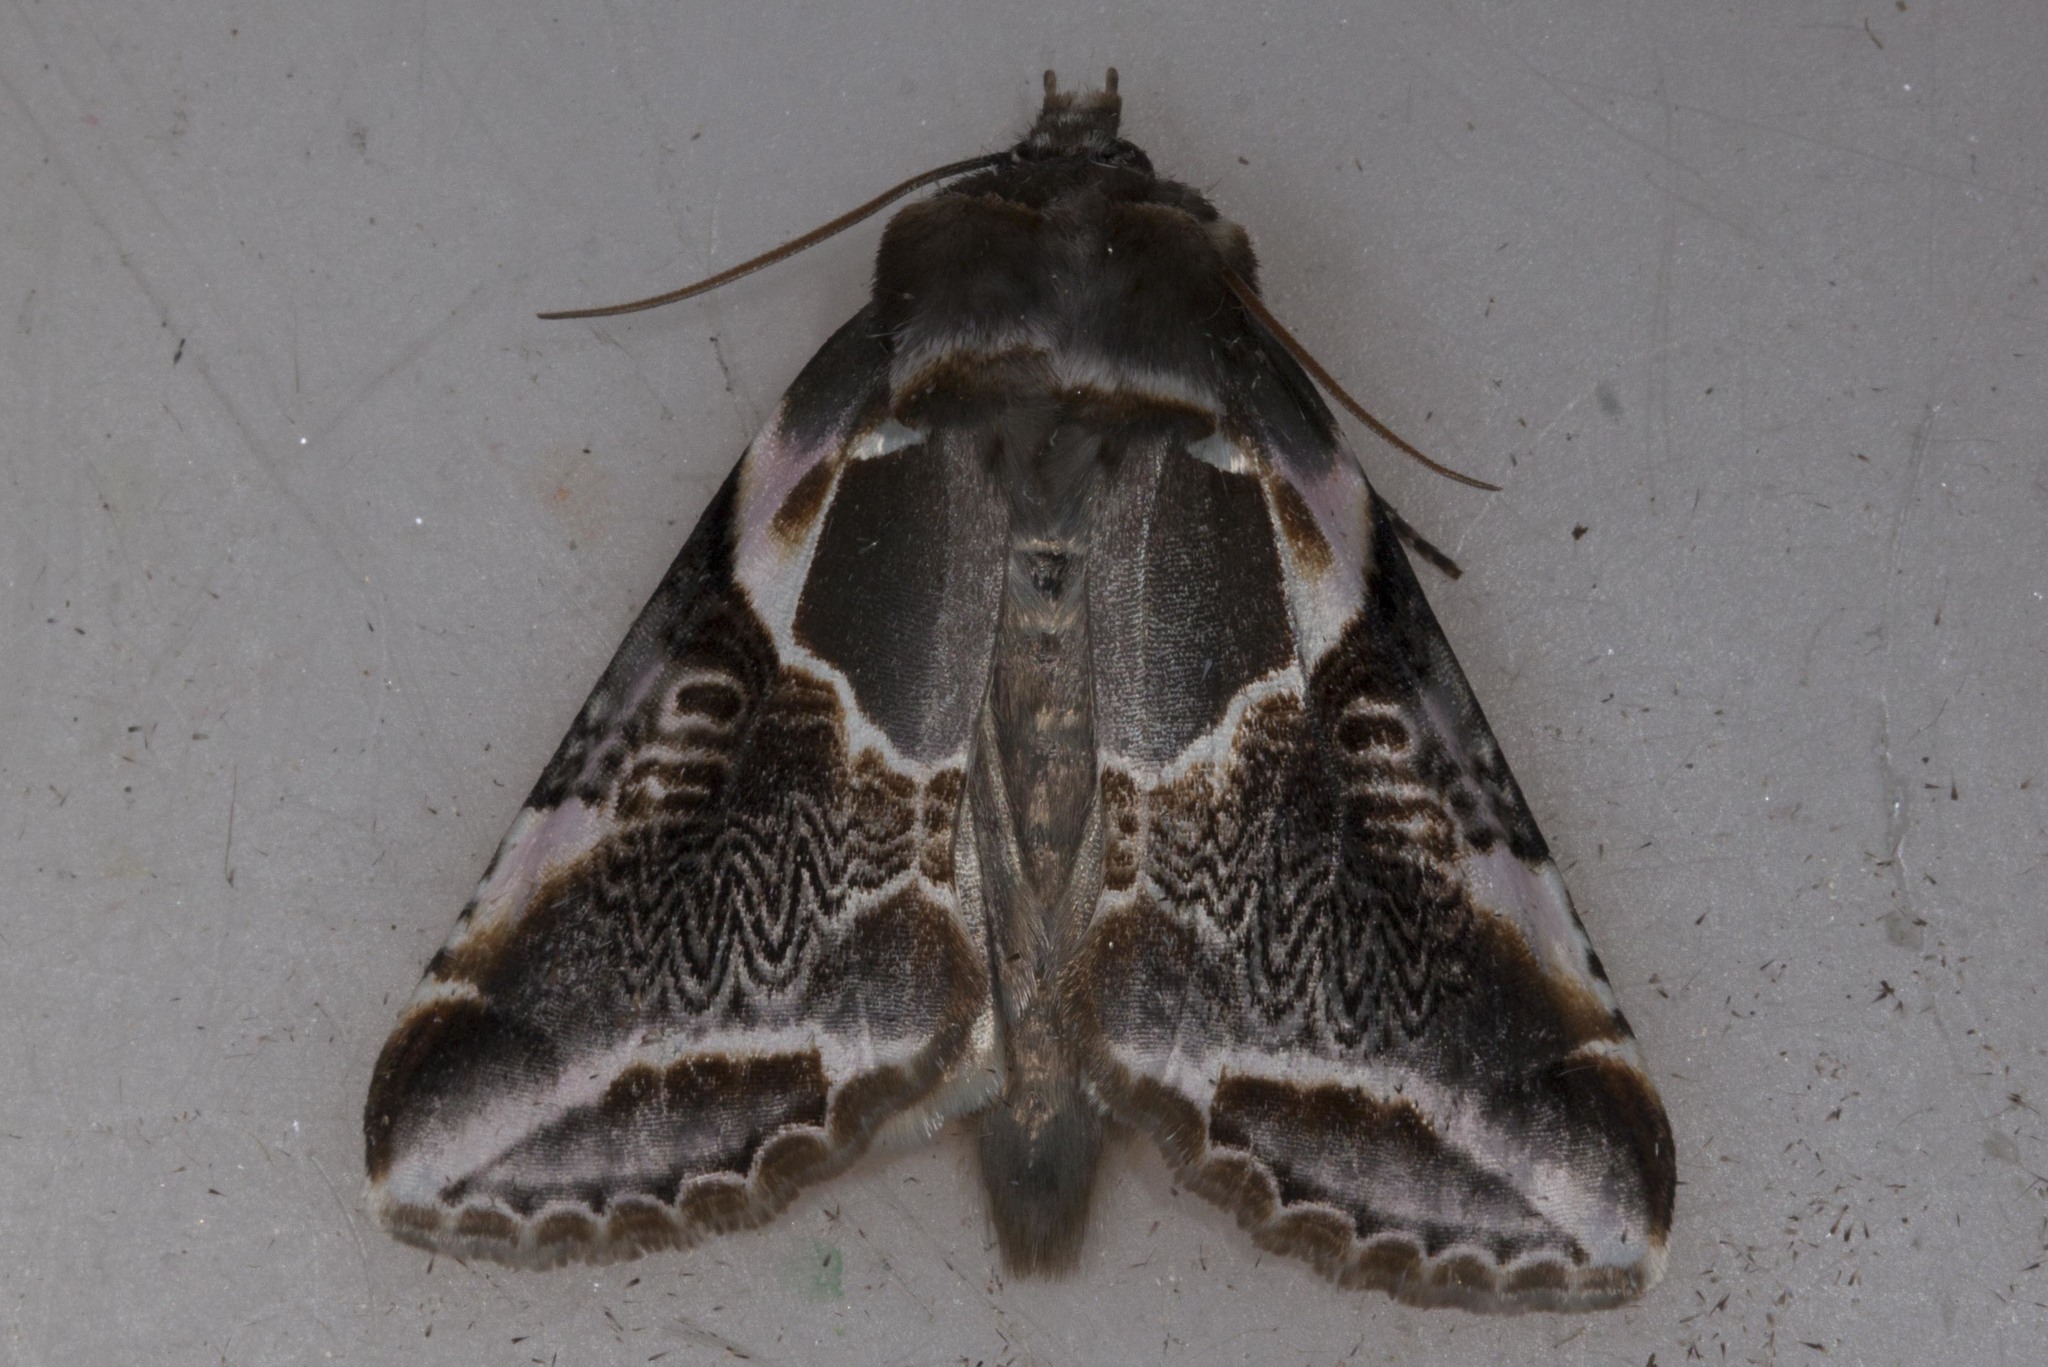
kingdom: Animalia
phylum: Arthropoda
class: Insecta
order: Lepidoptera
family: Drepanidae
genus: Habrosyne
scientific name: Habrosyne scripta
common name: Lettered habrosyne moth
